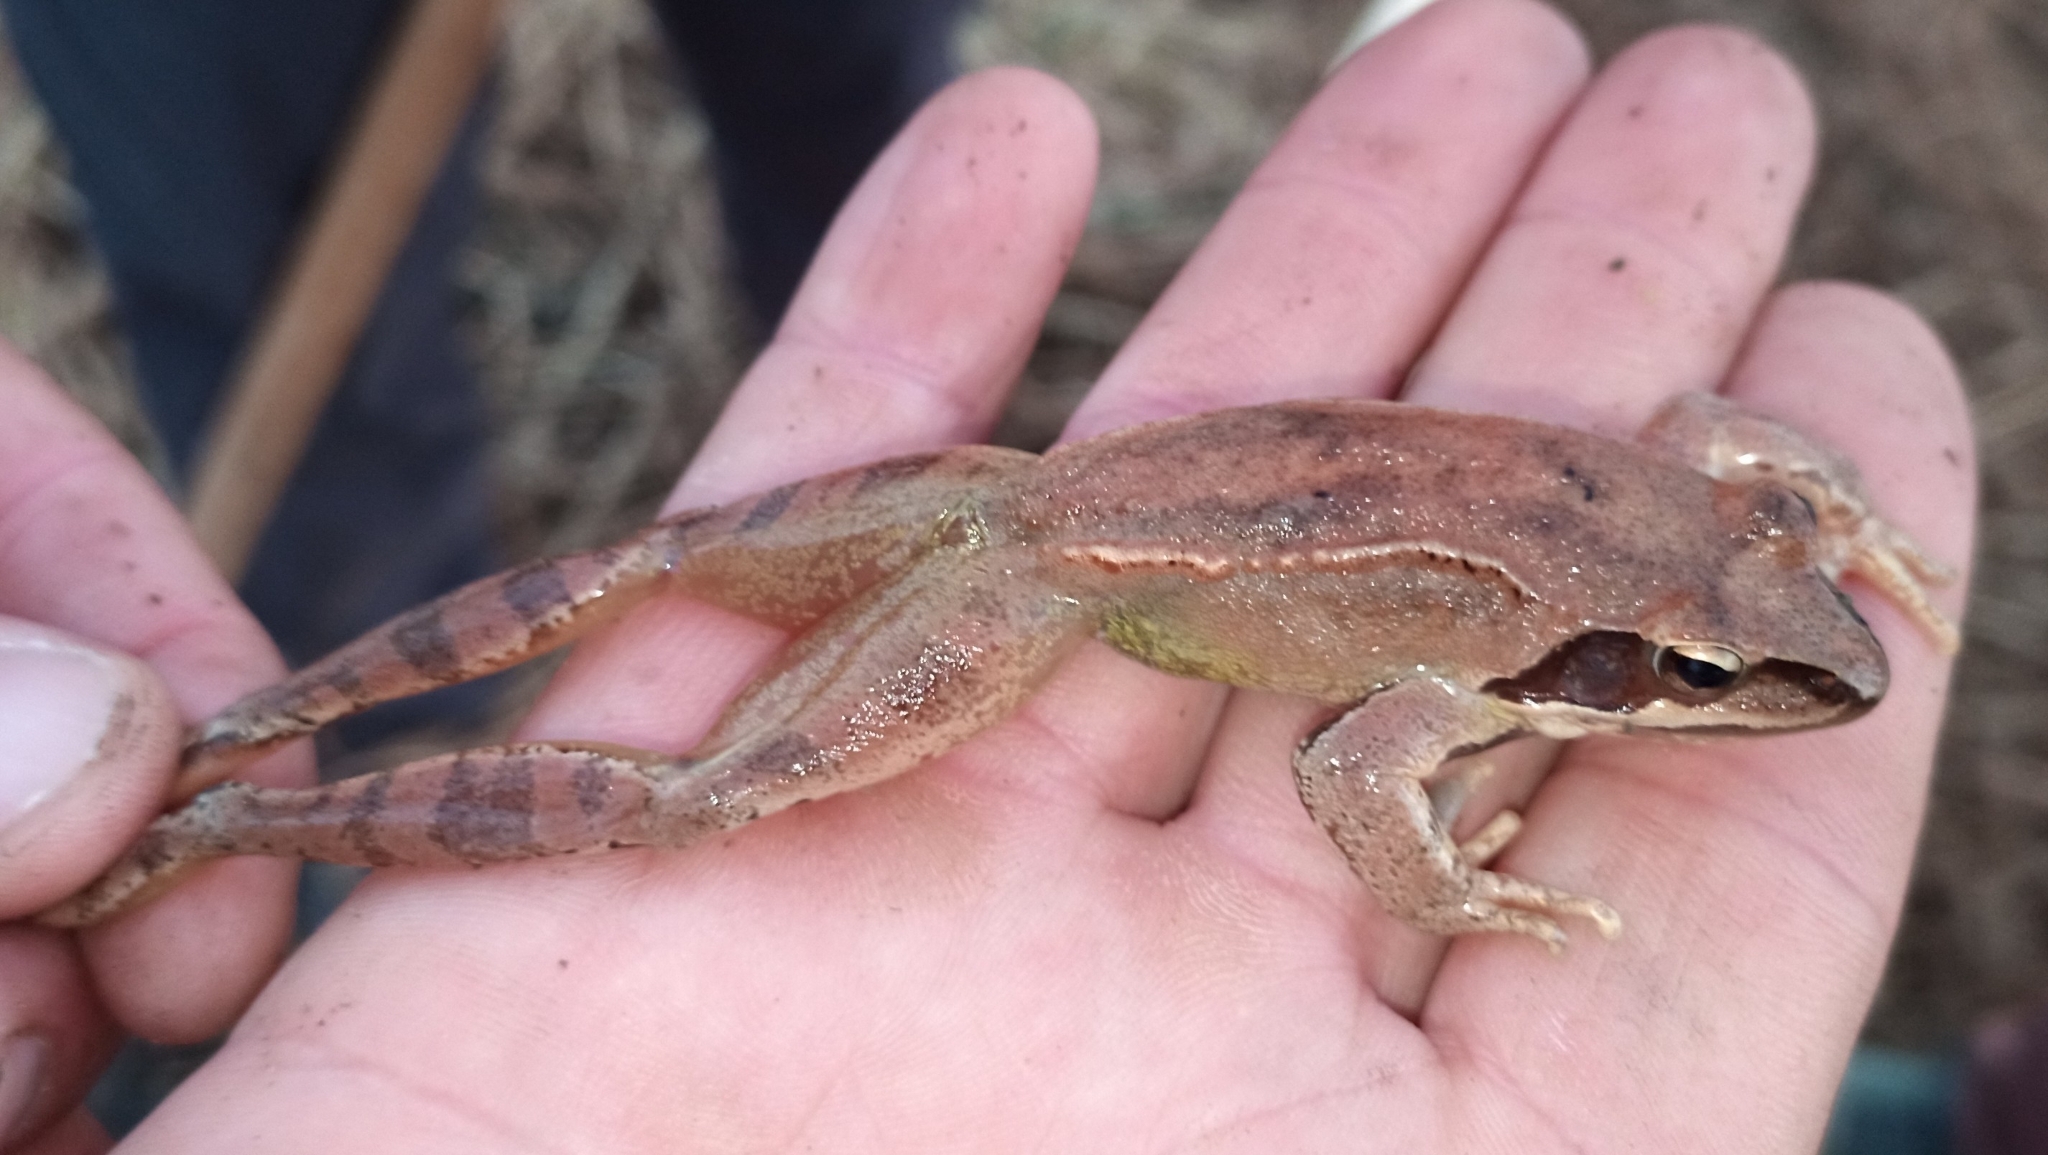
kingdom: Animalia
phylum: Chordata
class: Amphibia
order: Anura
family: Ranidae
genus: Rana
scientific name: Rana dalmatina
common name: Agile frog
